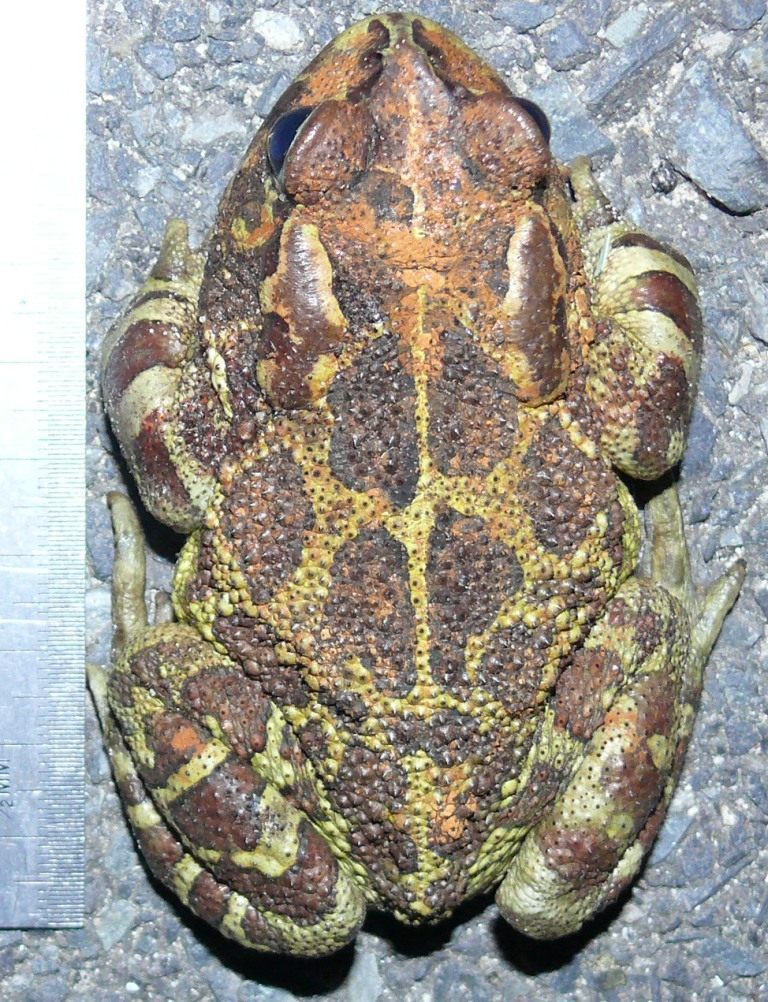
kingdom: Animalia
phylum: Chordata
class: Amphibia
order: Anura
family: Bufonidae
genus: Sclerophrys
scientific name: Sclerophrys pantherina
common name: Panther toad
